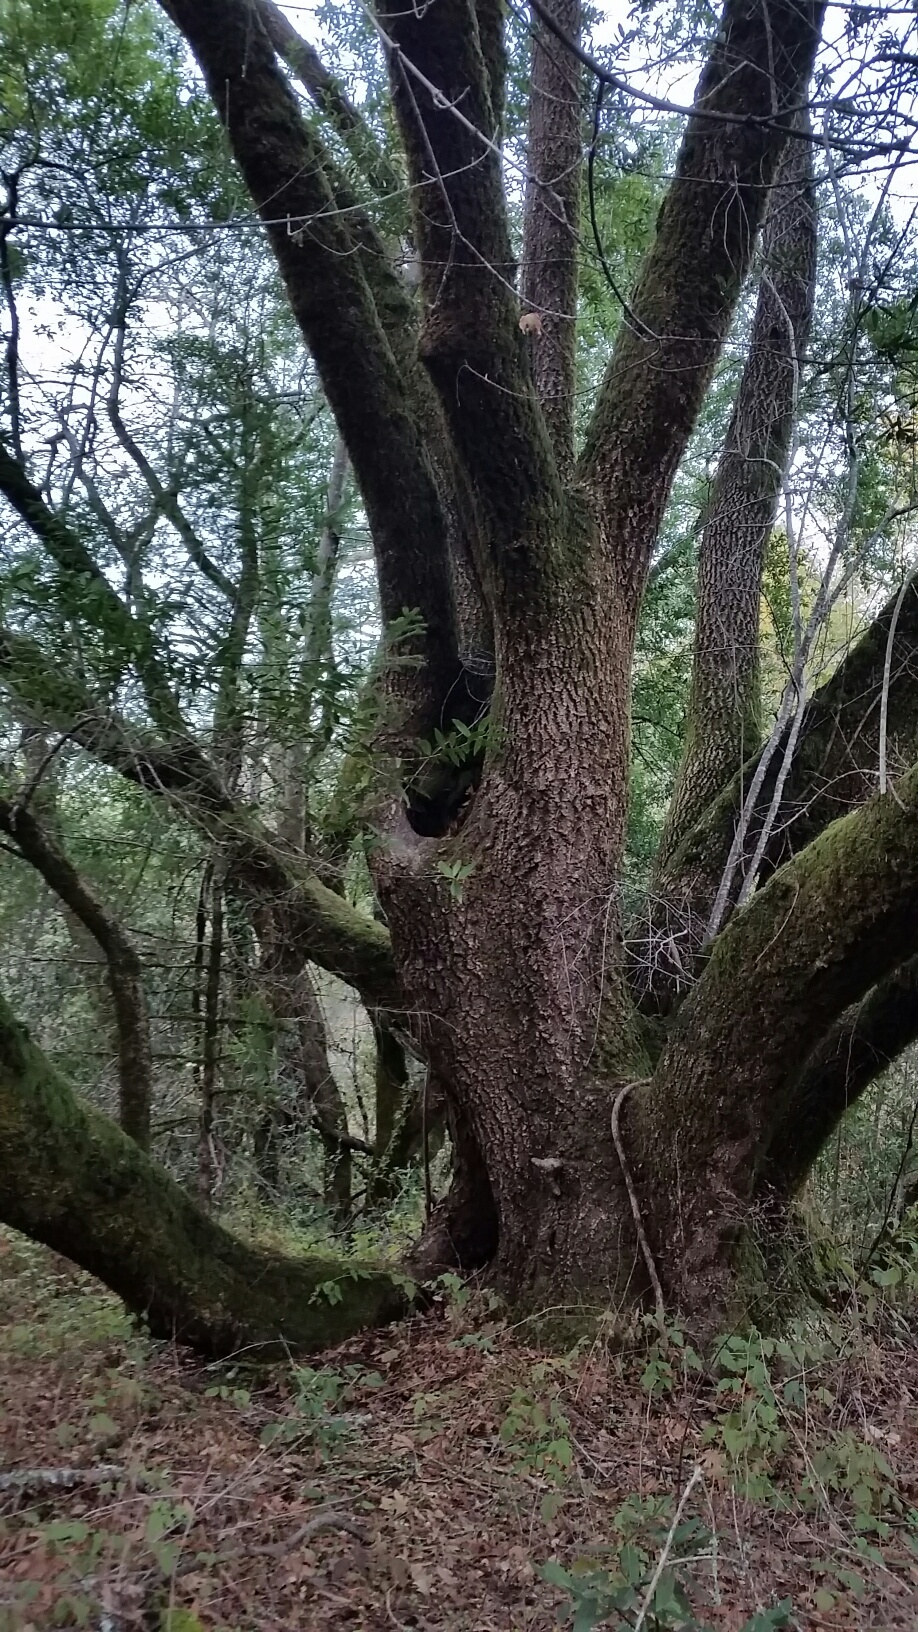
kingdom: Plantae
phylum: Tracheophyta
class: Magnoliopsida
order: Laurales
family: Lauraceae
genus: Umbellularia
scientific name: Umbellularia californica
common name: California bay
